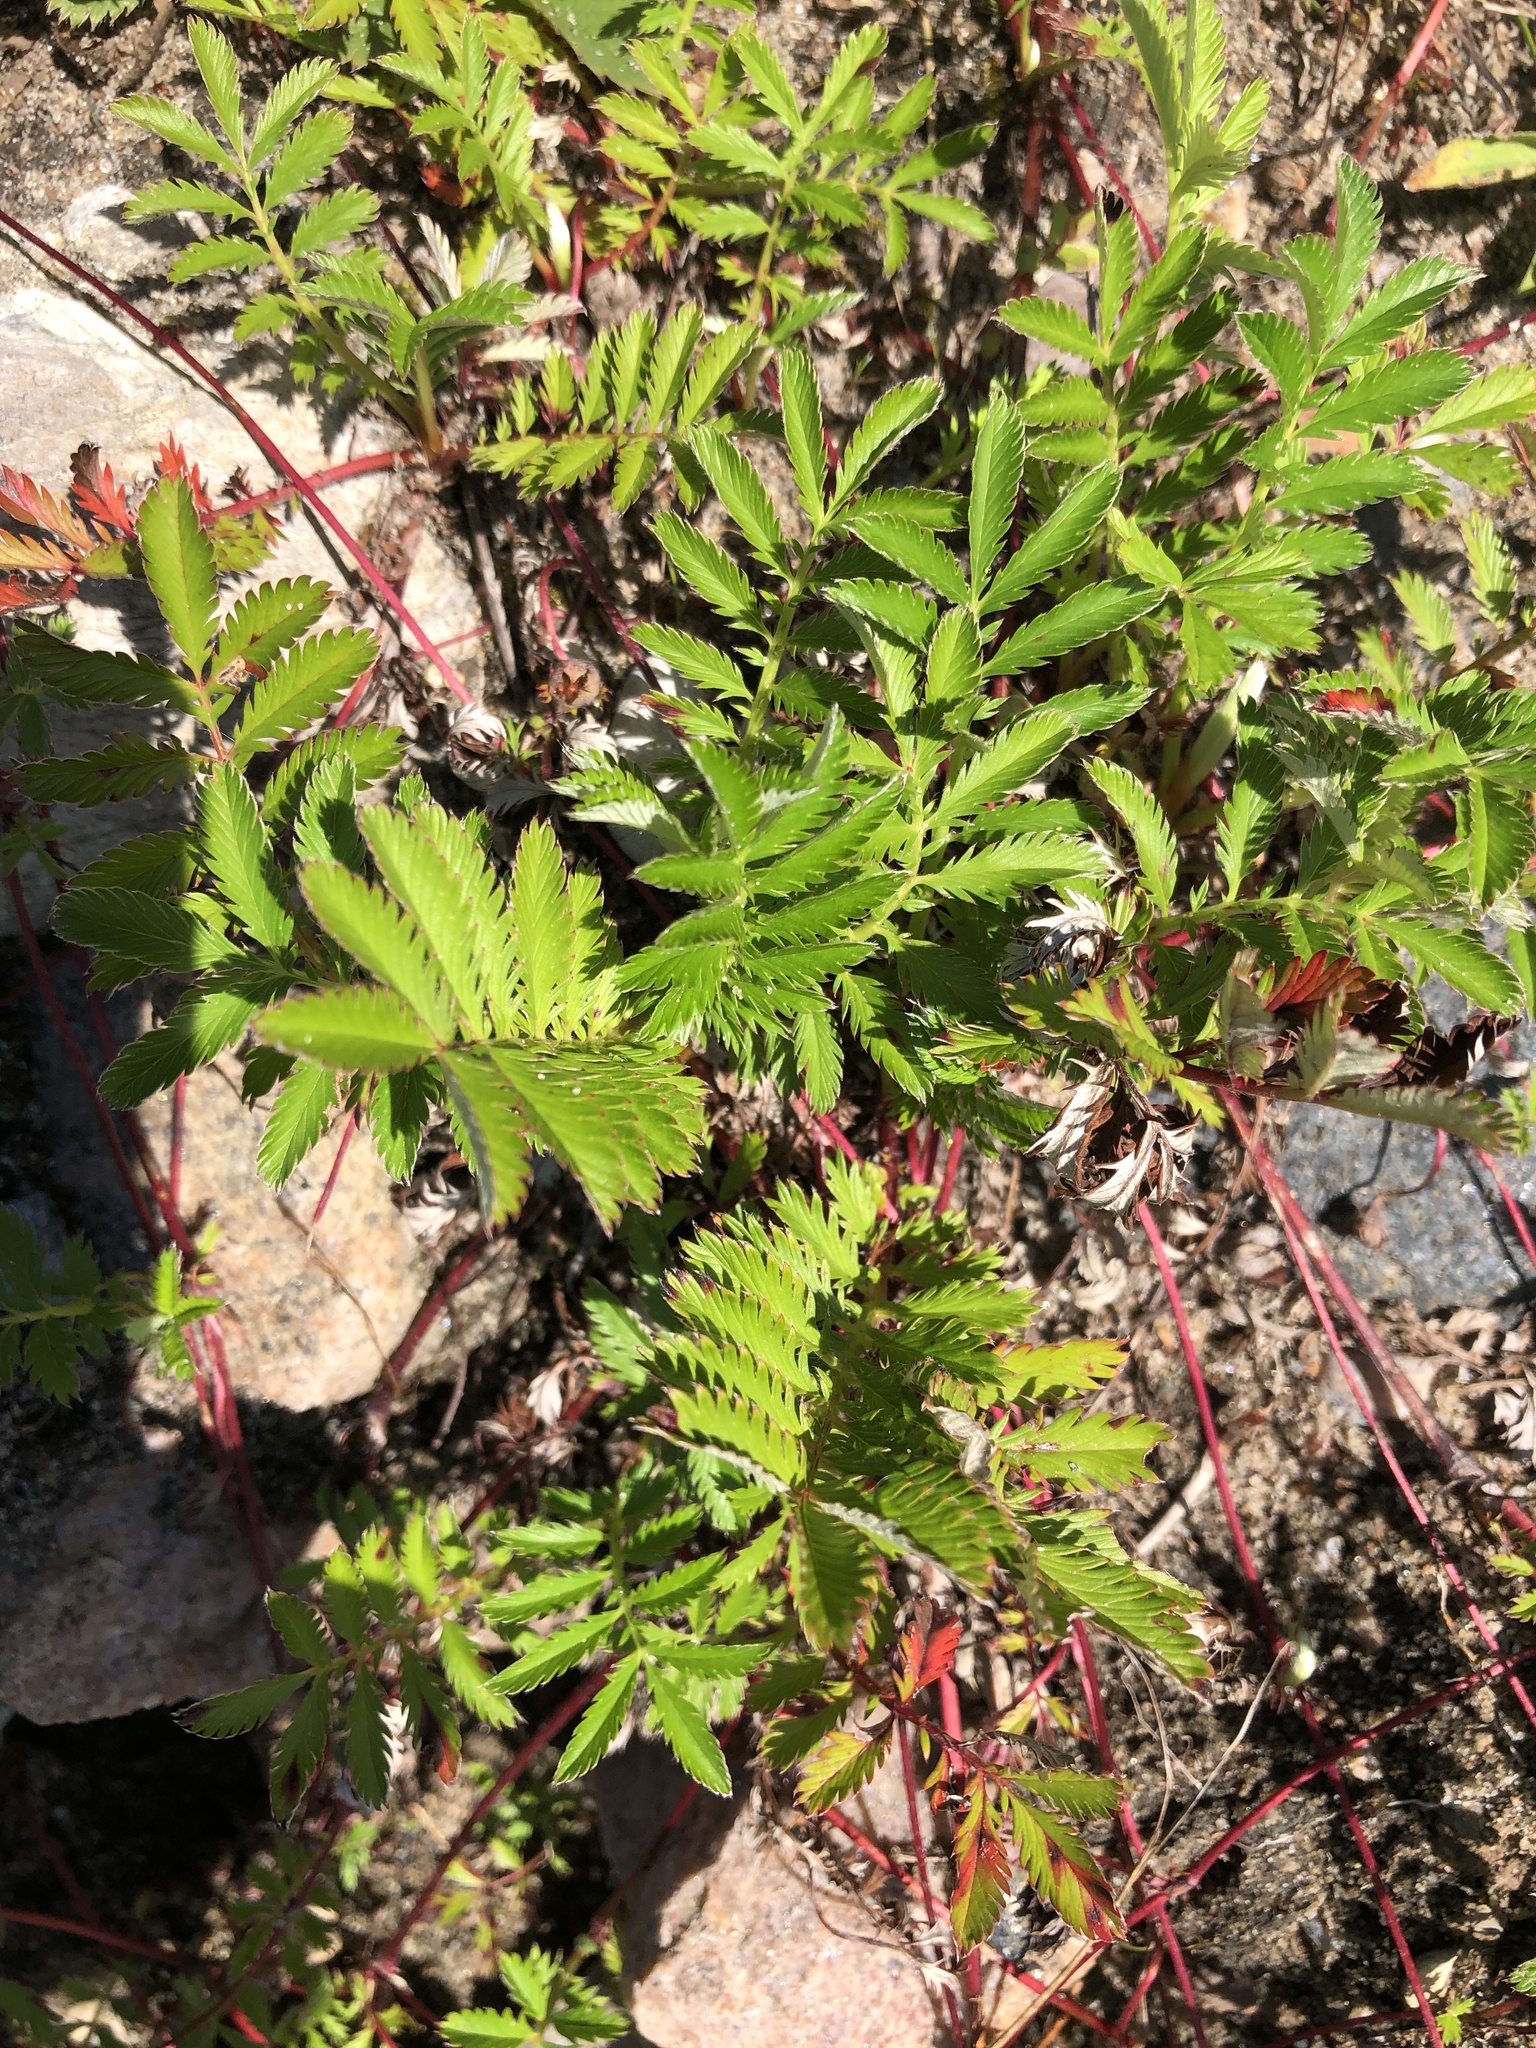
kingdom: Plantae
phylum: Tracheophyta
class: Magnoliopsida
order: Rosales
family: Rosaceae
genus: Argentina
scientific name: Argentina anserina
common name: Common silverweed
